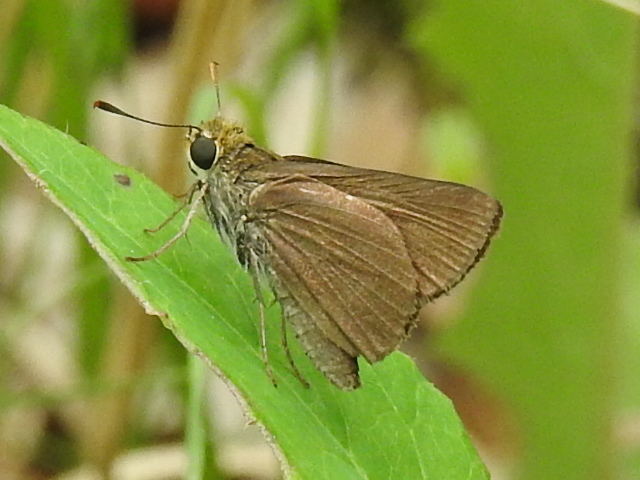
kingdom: Animalia
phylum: Arthropoda
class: Insecta
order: Lepidoptera
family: Hesperiidae
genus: Euphyes
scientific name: Euphyes vestris
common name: Dun skipper
